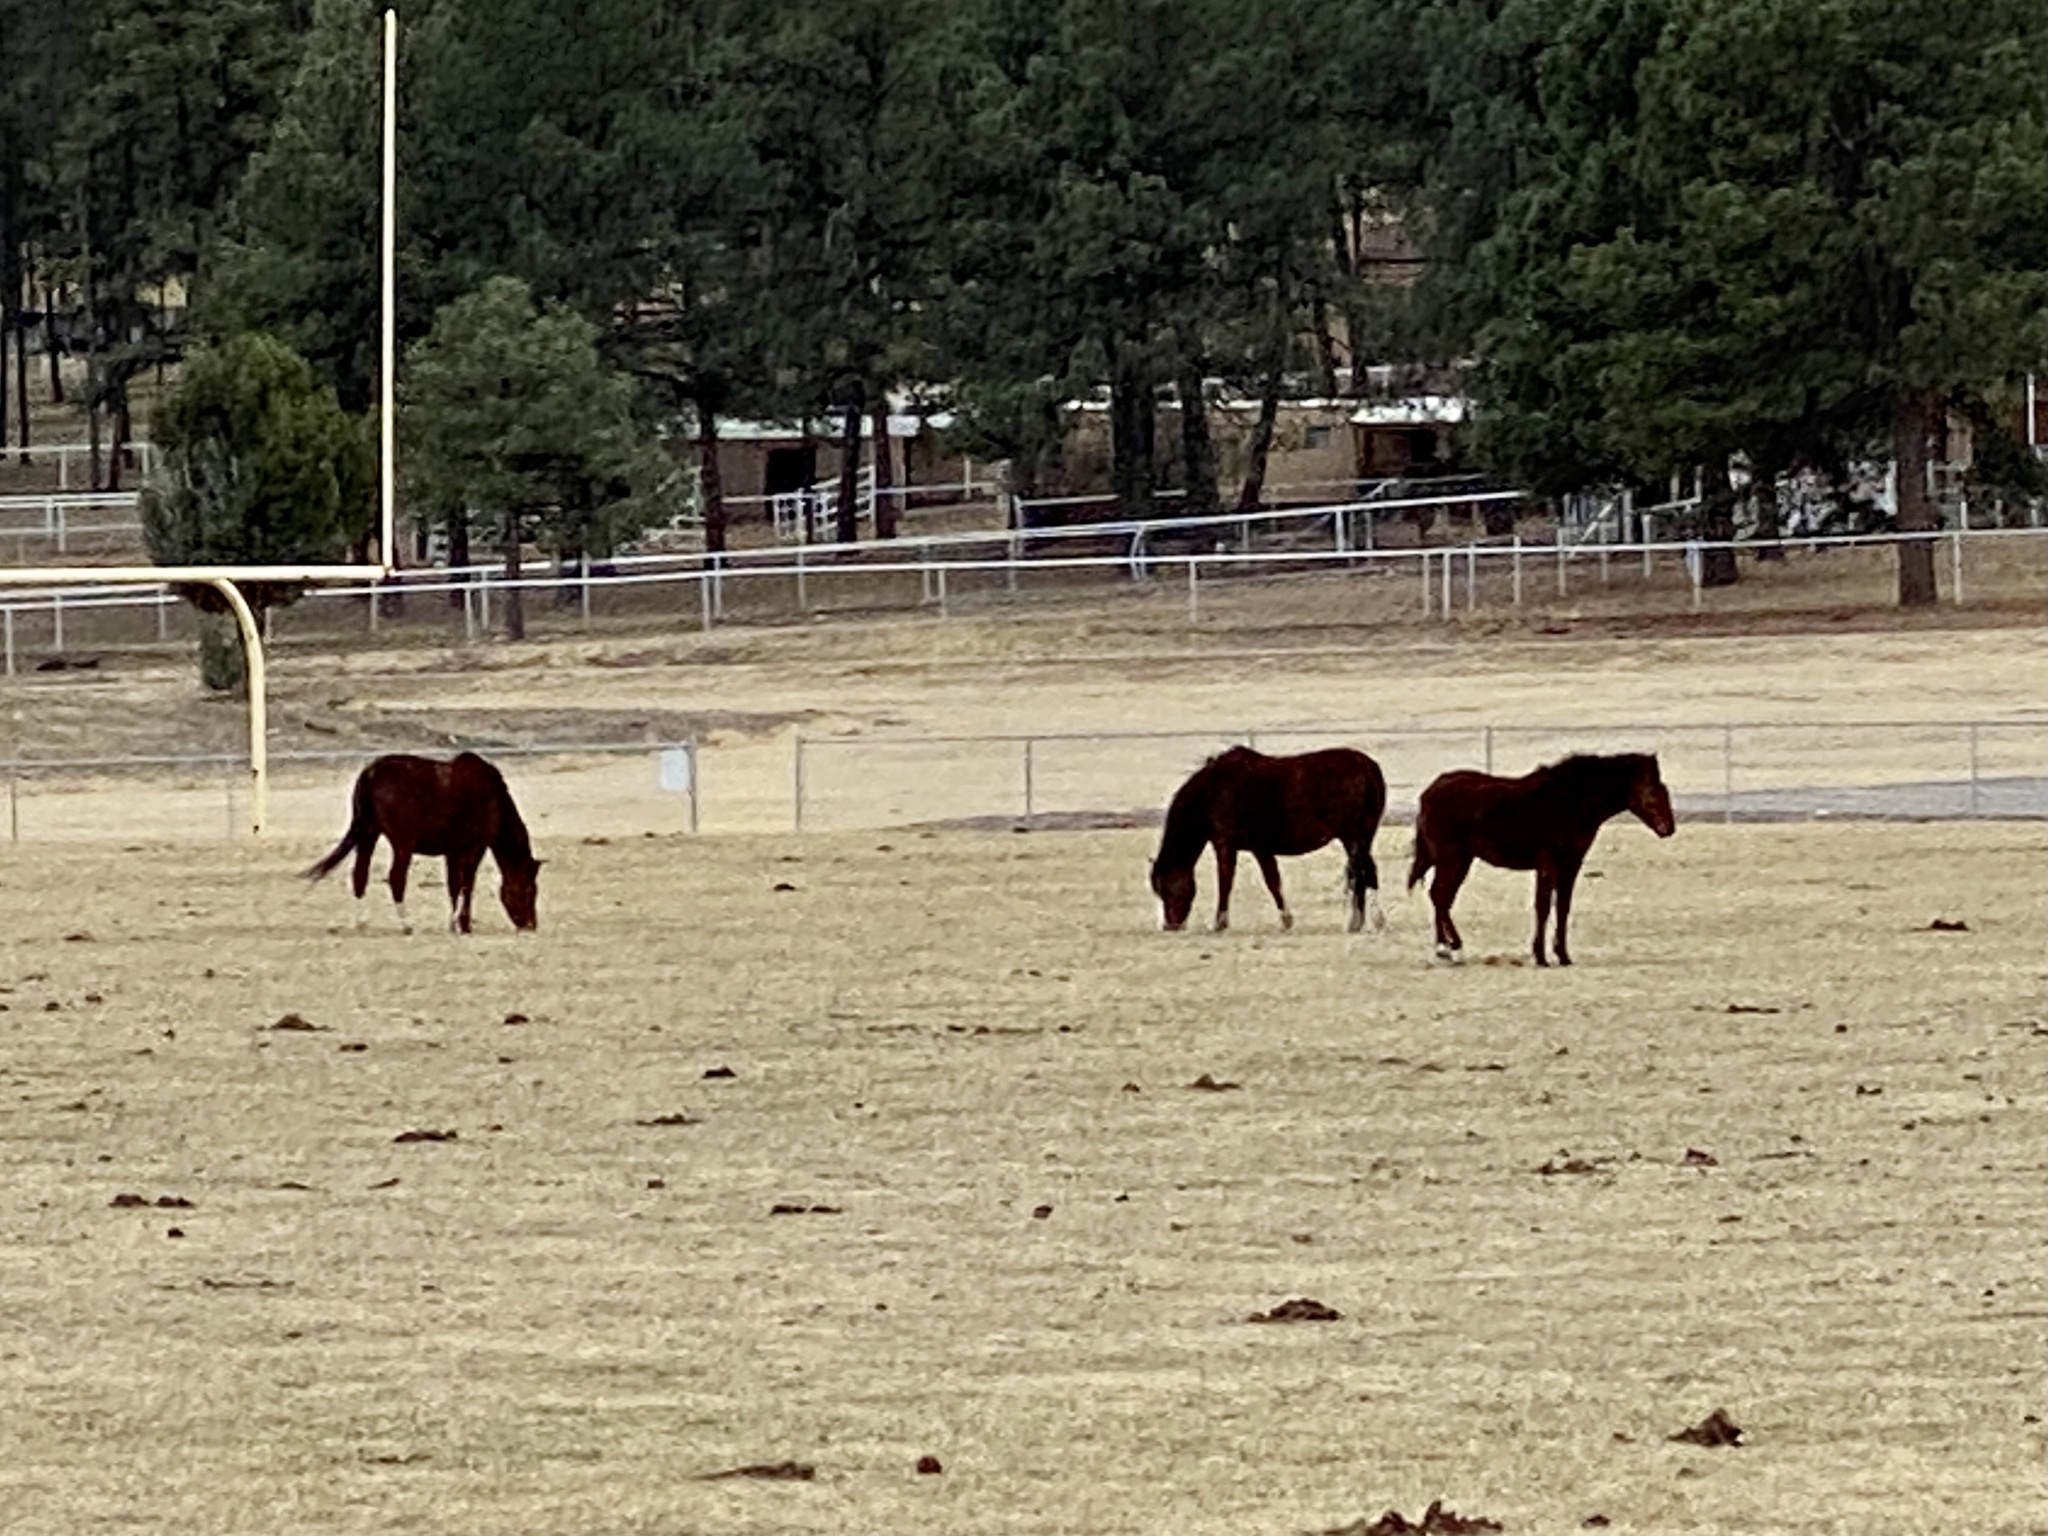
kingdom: Animalia
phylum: Chordata
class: Mammalia
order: Perissodactyla
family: Equidae
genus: Equus
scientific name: Equus caballus
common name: Horse
